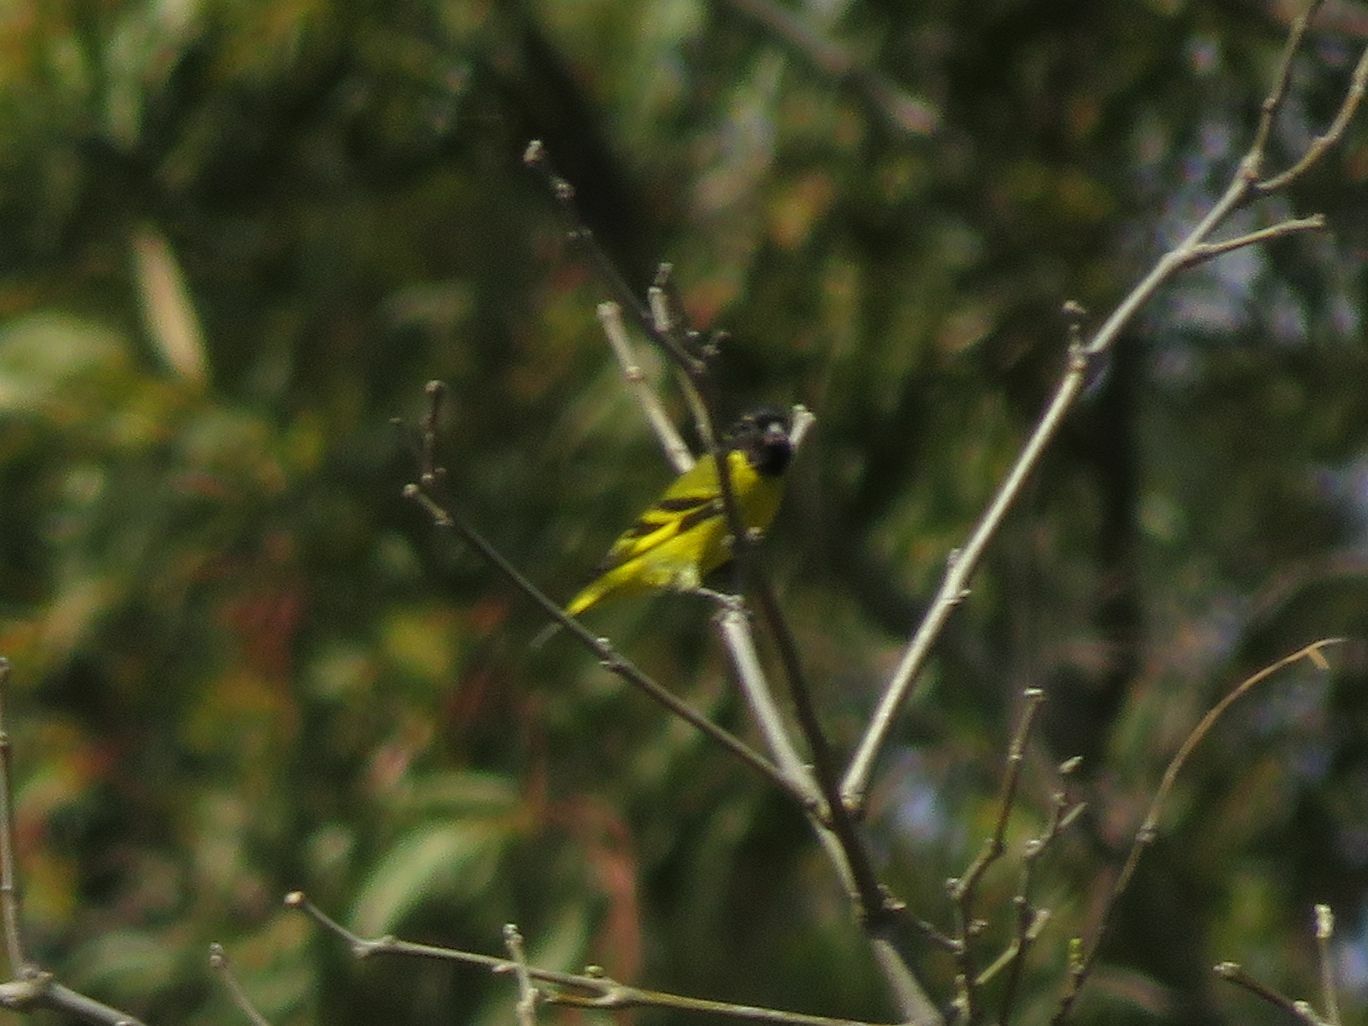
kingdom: Animalia
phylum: Chordata
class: Aves
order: Passeriformes
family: Fringillidae
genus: Spinus
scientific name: Spinus magellanicus
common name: Hooded siskin
